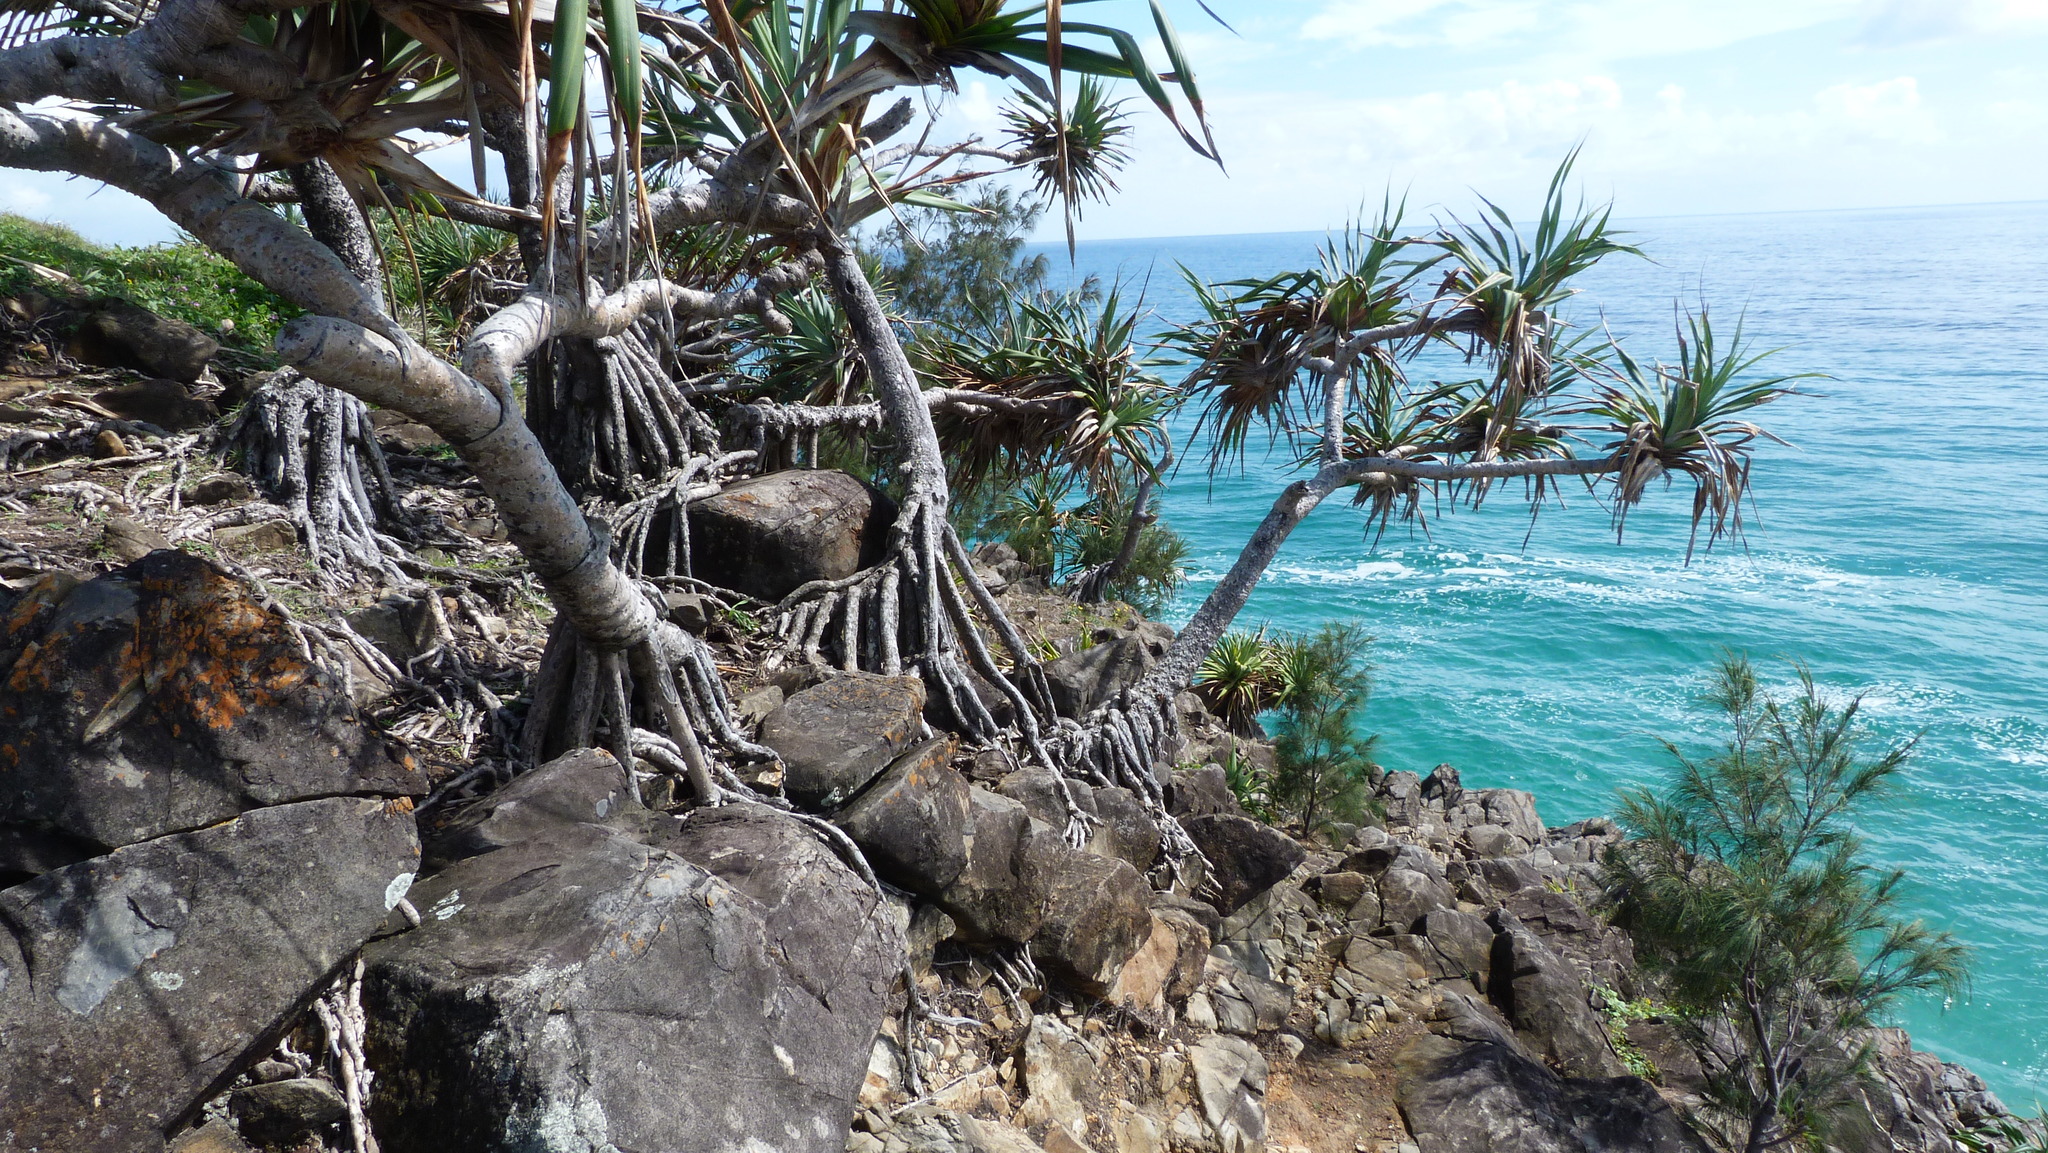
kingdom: Plantae
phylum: Tracheophyta
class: Liliopsida
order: Pandanales
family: Pandanaceae
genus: Pandanus
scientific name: Pandanus tectorius
